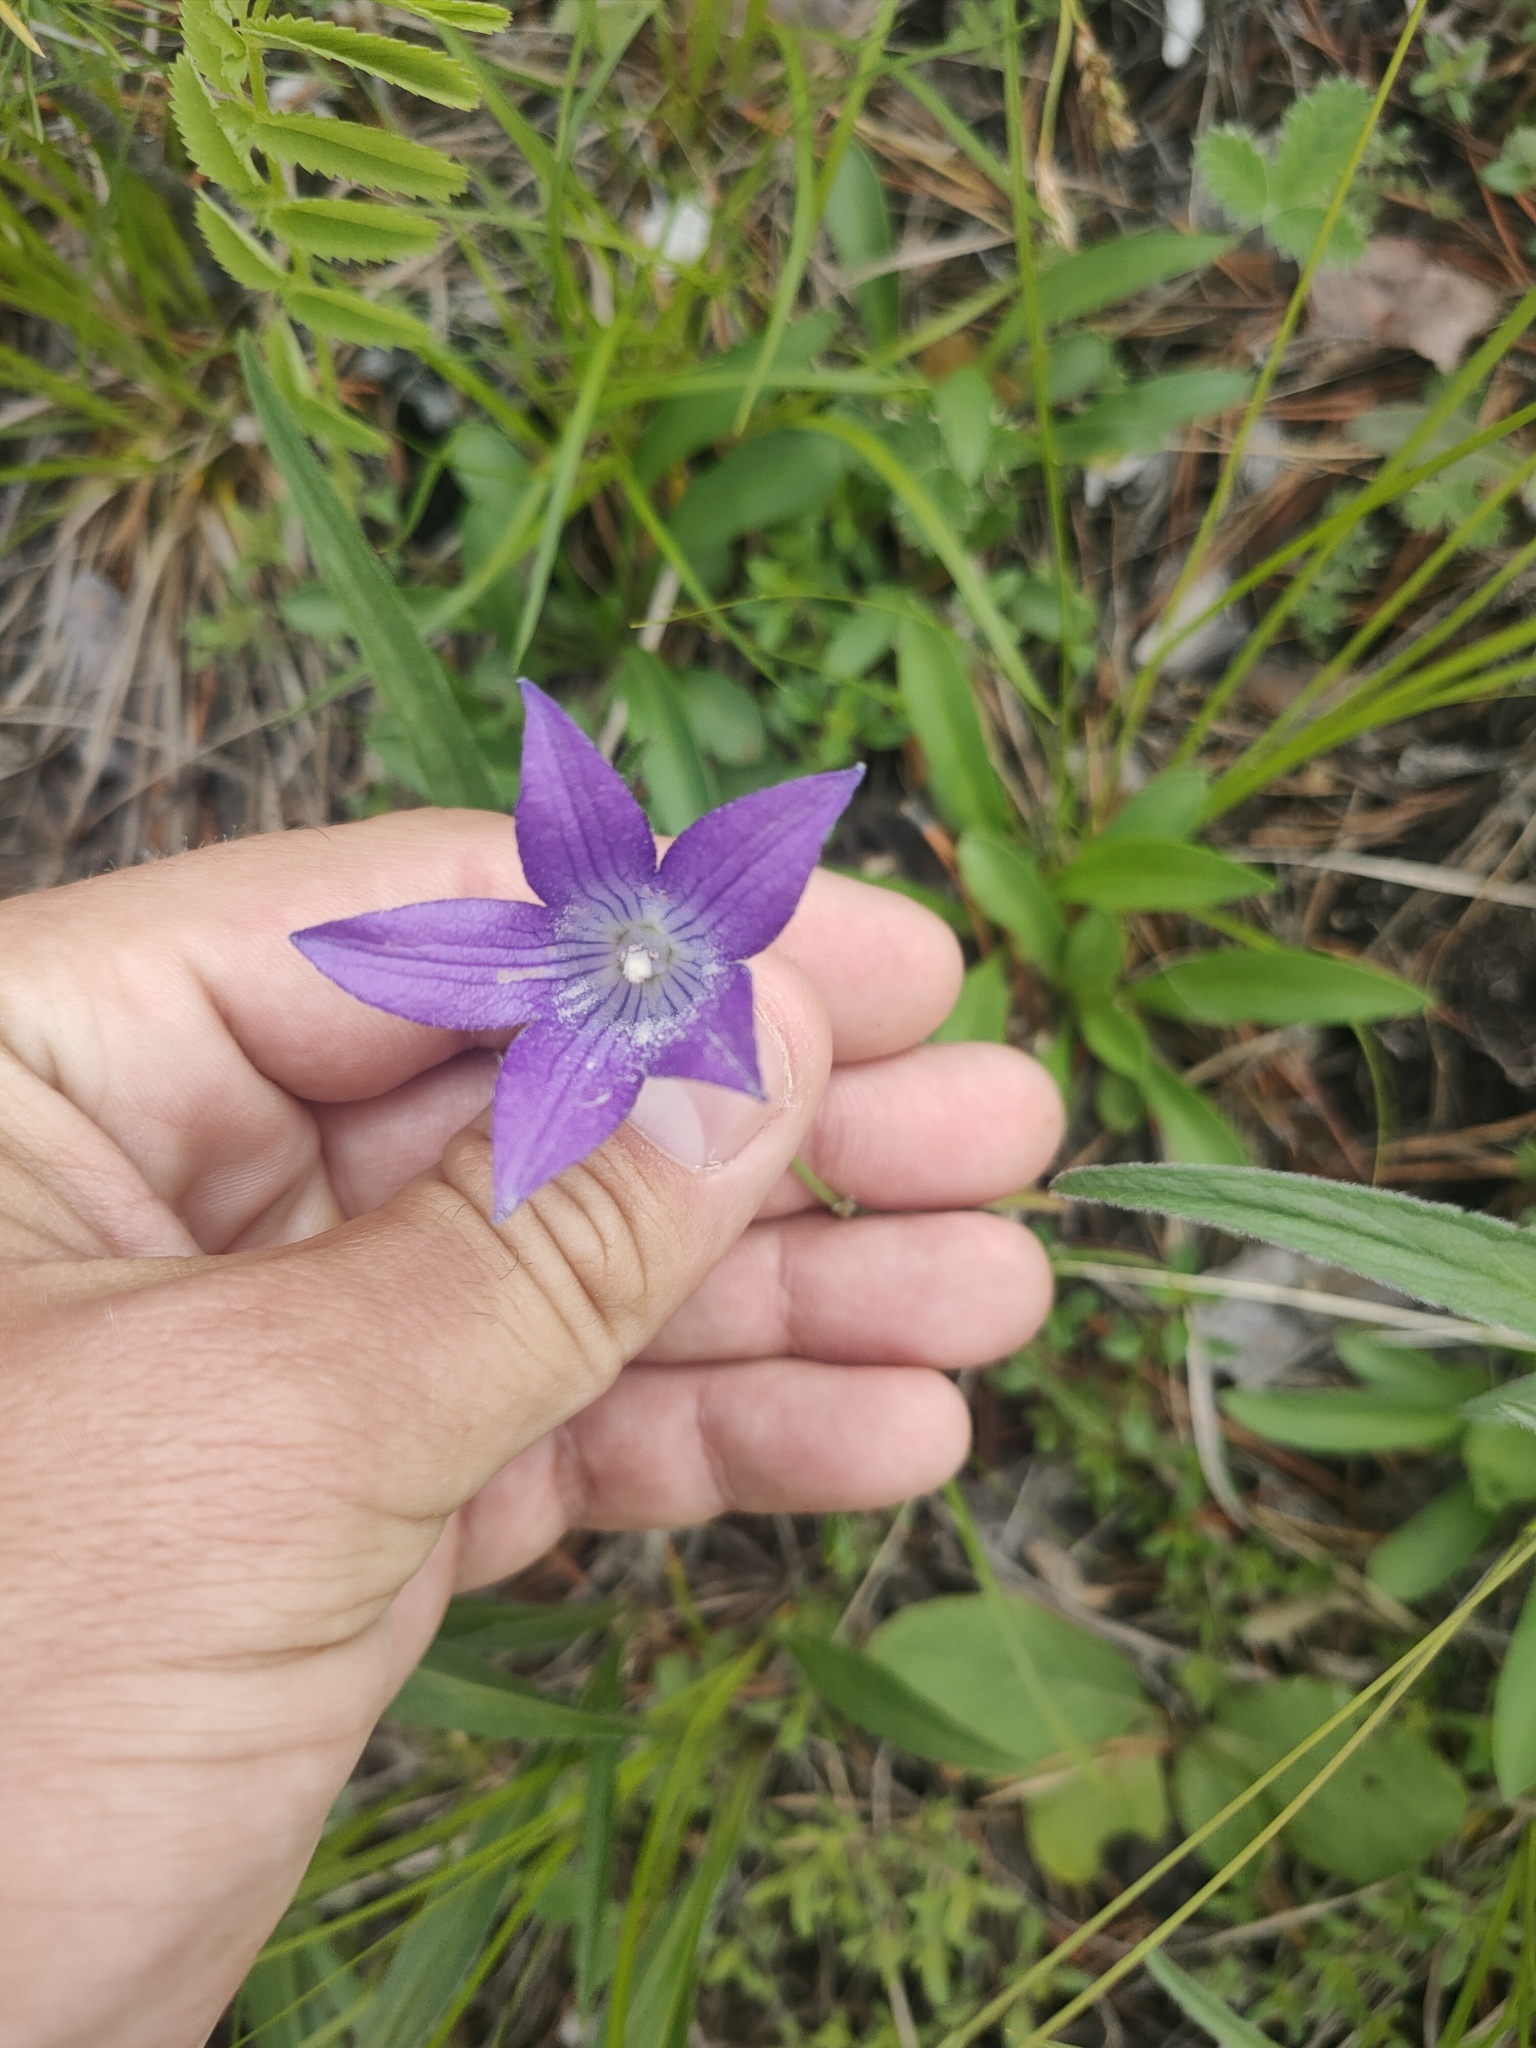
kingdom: Plantae
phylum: Tracheophyta
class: Magnoliopsida
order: Asterales
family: Campanulaceae
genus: Campanula
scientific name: Campanula stevenii
